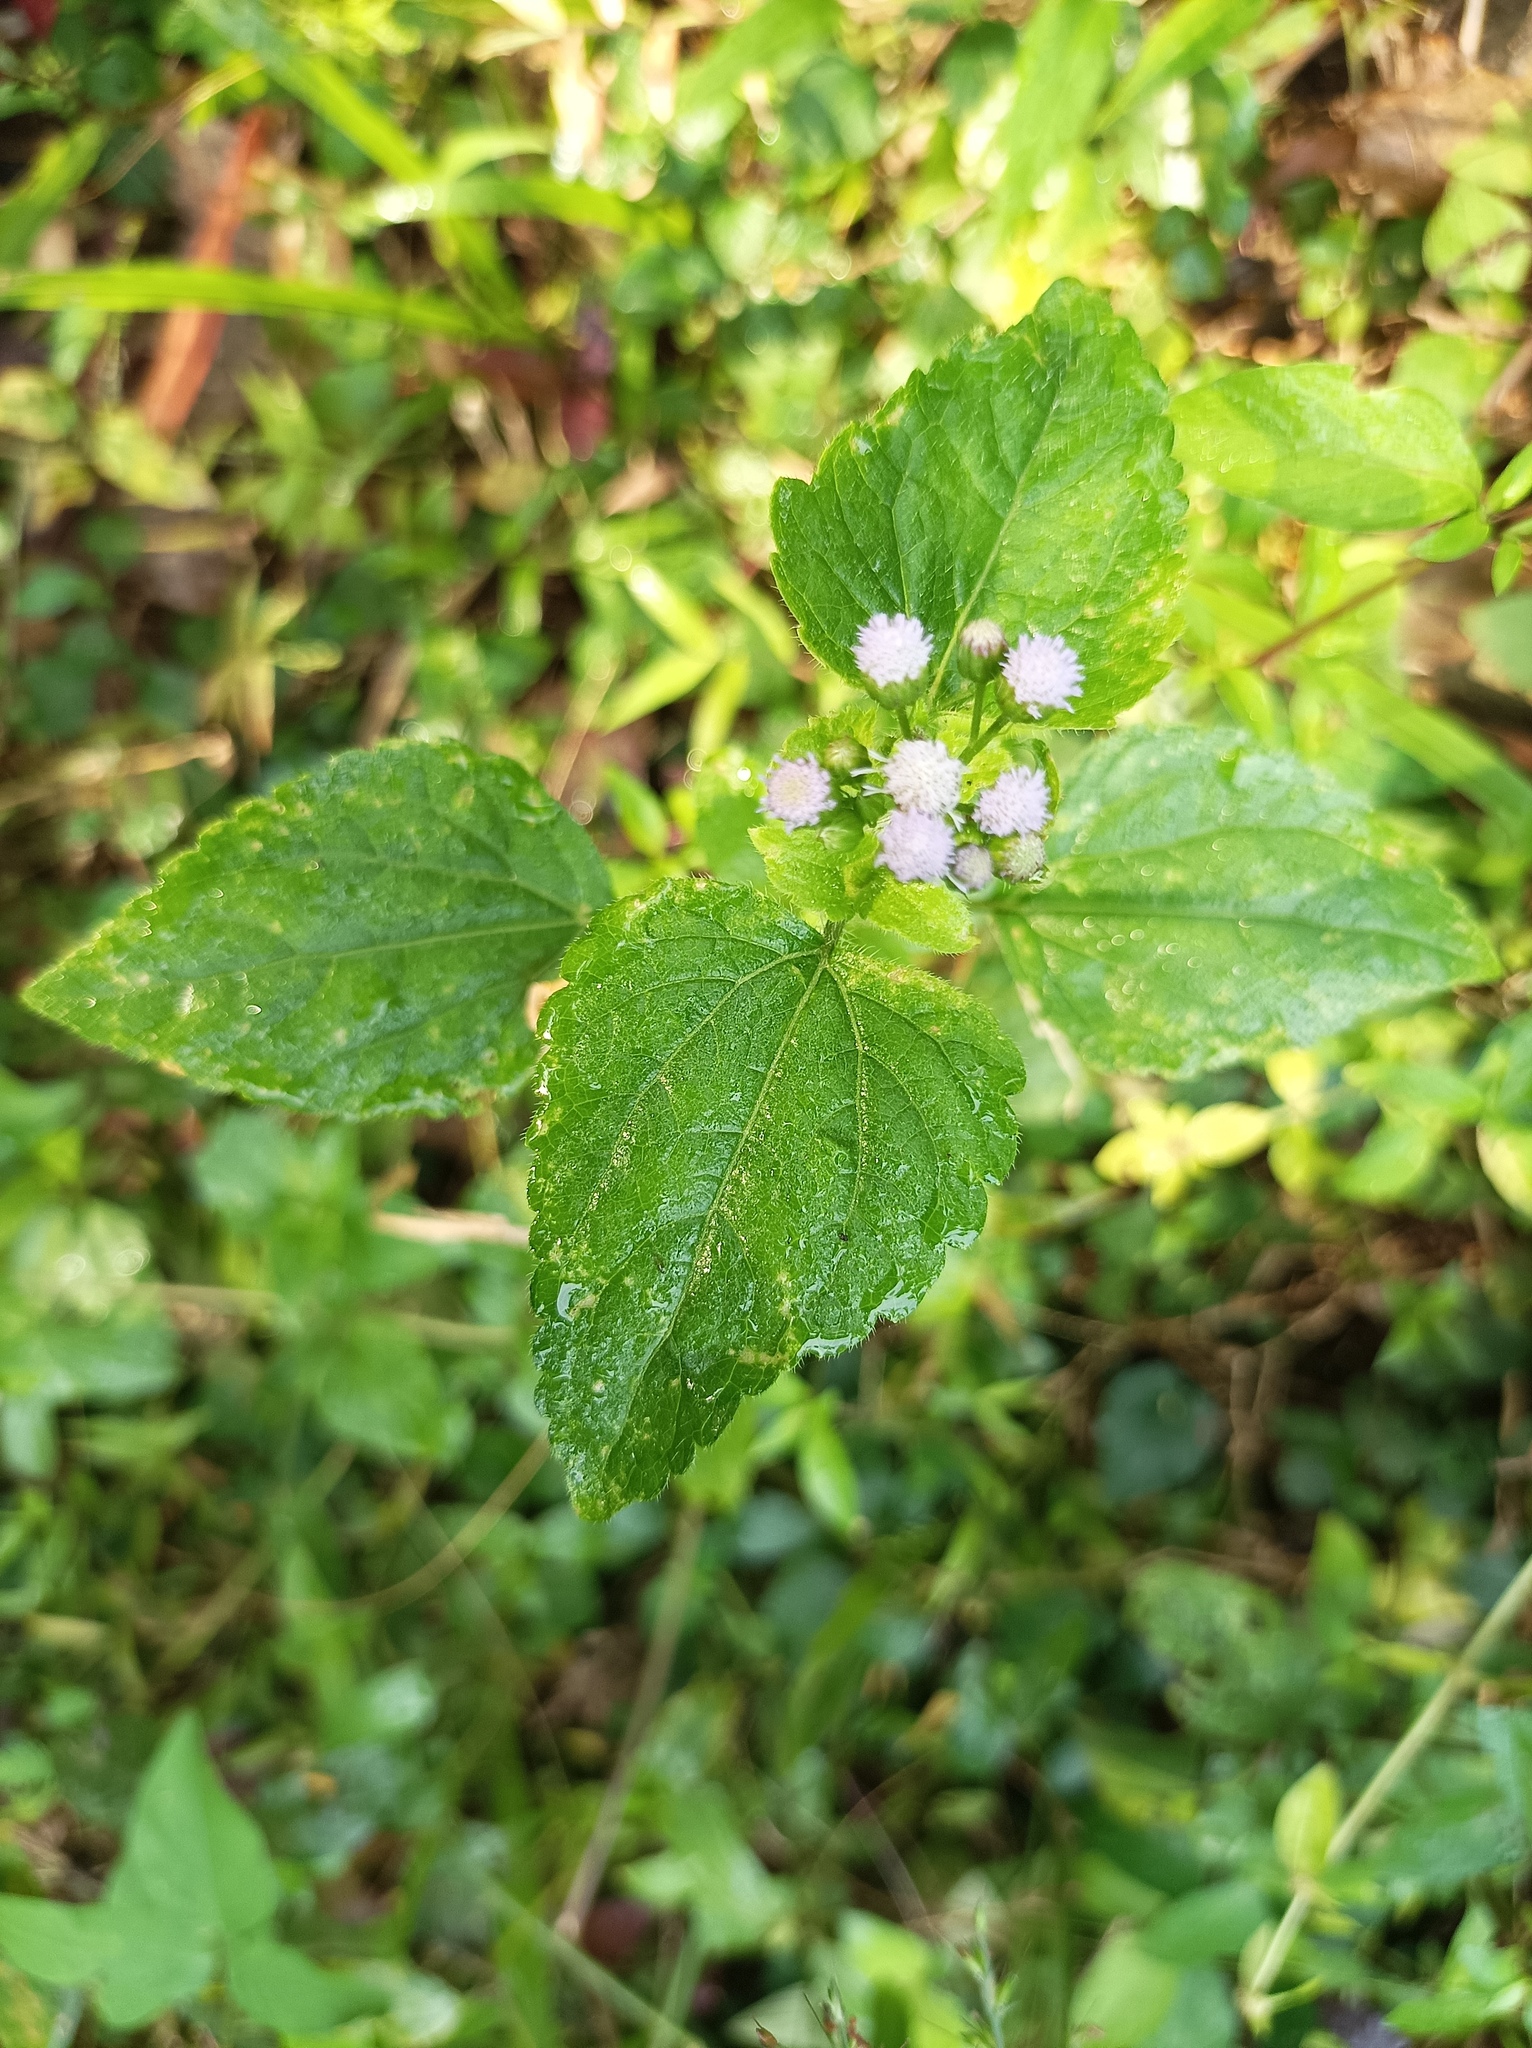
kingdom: Plantae
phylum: Tracheophyta
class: Magnoliopsida
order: Asterales
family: Asteraceae
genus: Ageratum
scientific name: Ageratum conyzoides
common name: Tropical whiteweed
